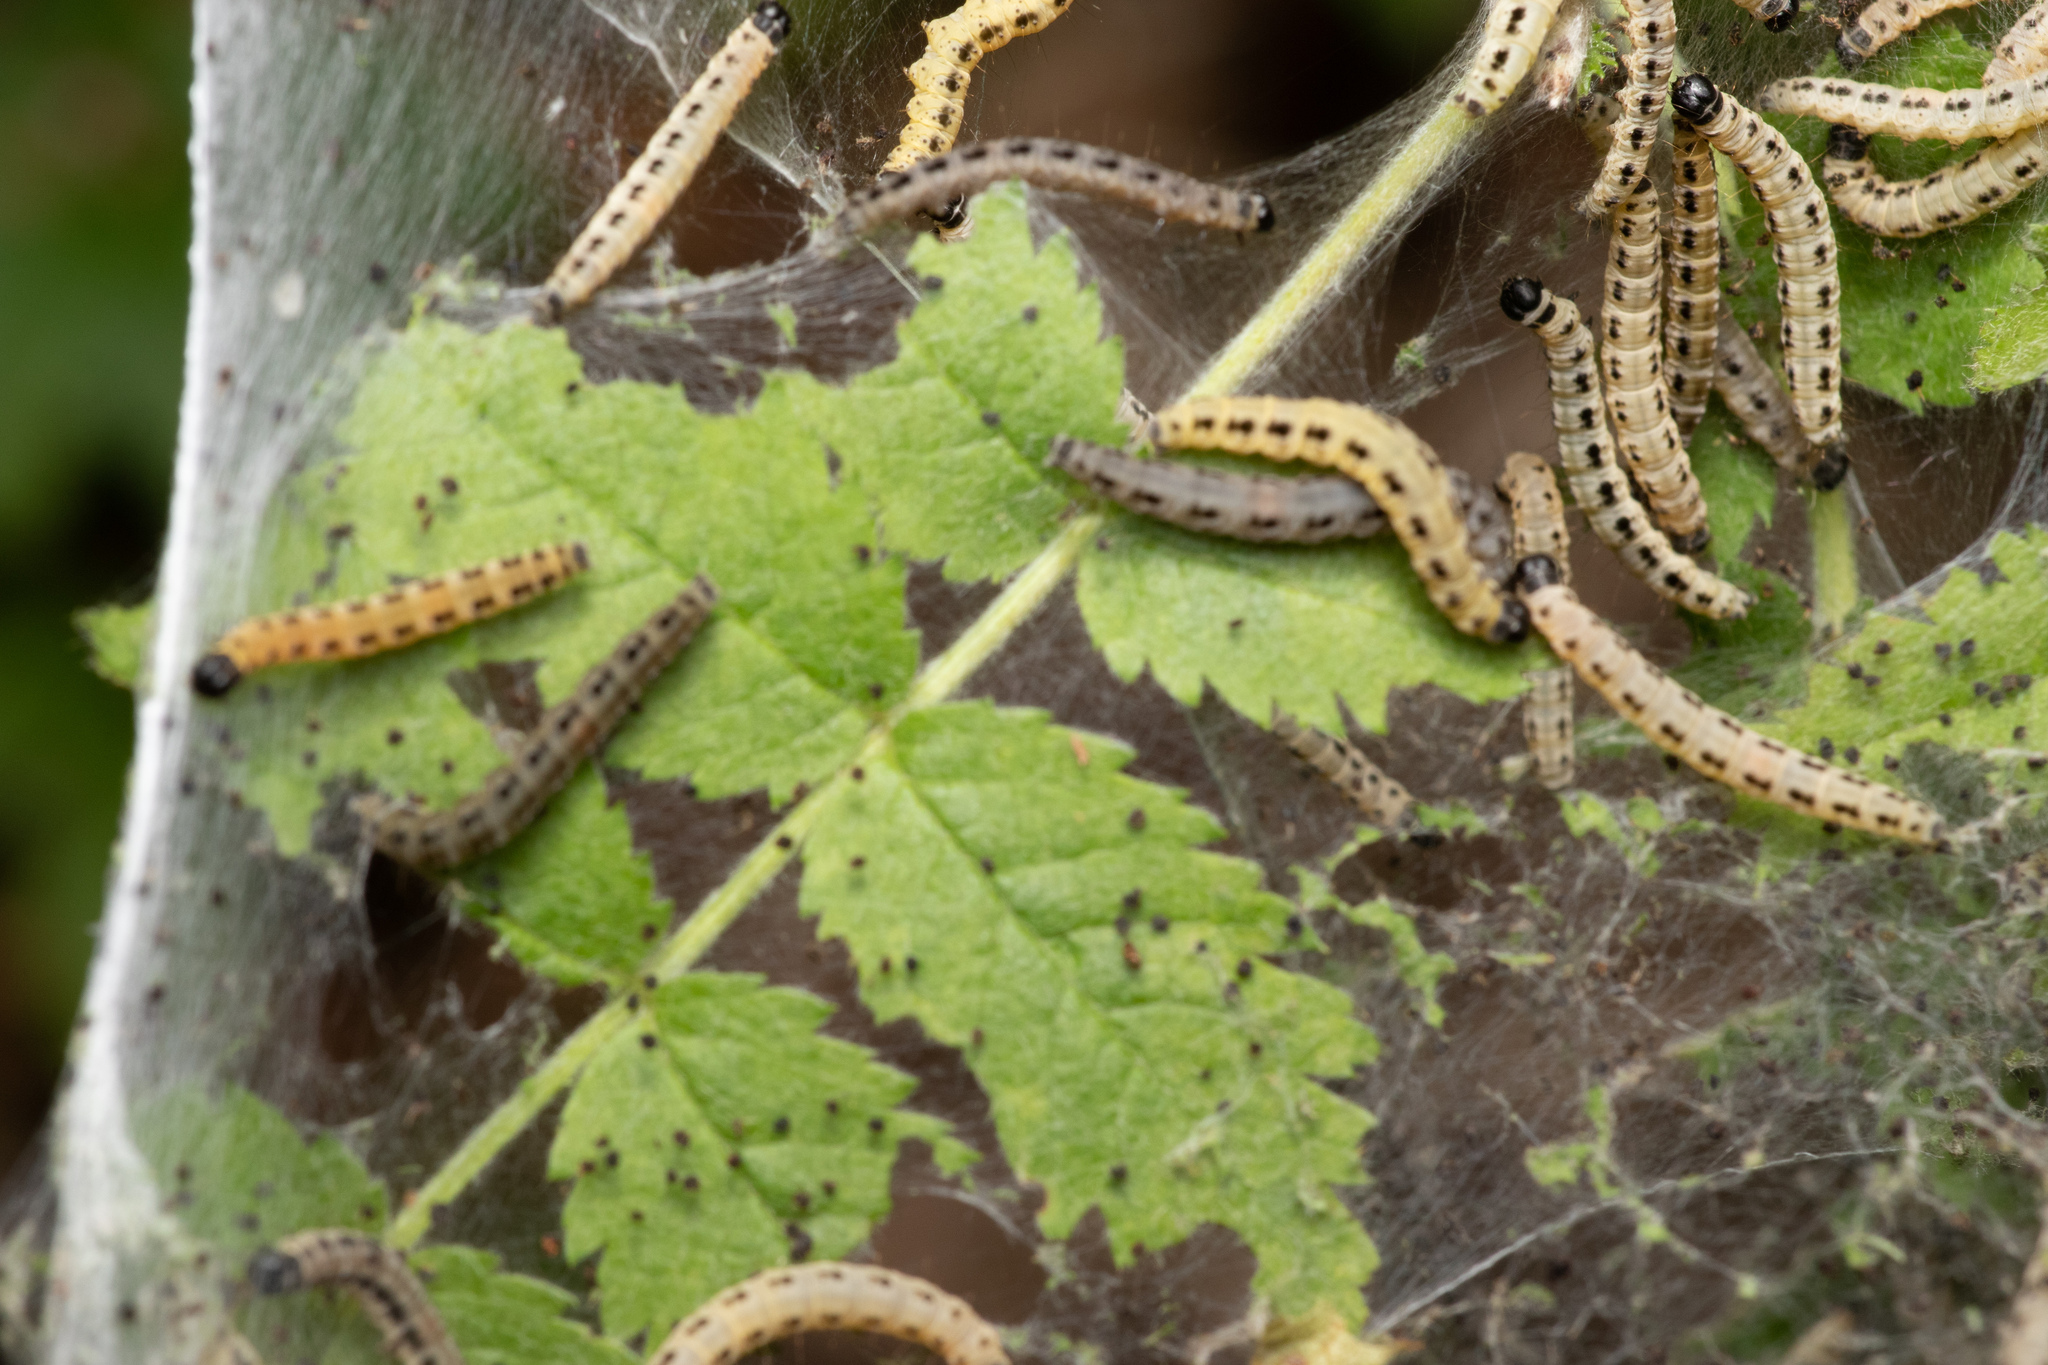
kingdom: Animalia
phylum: Arthropoda
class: Insecta
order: Lepidoptera
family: Yponomeutidae
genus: Yponomeuta
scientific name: Yponomeuta evonymella
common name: Bird-cherry ermine
